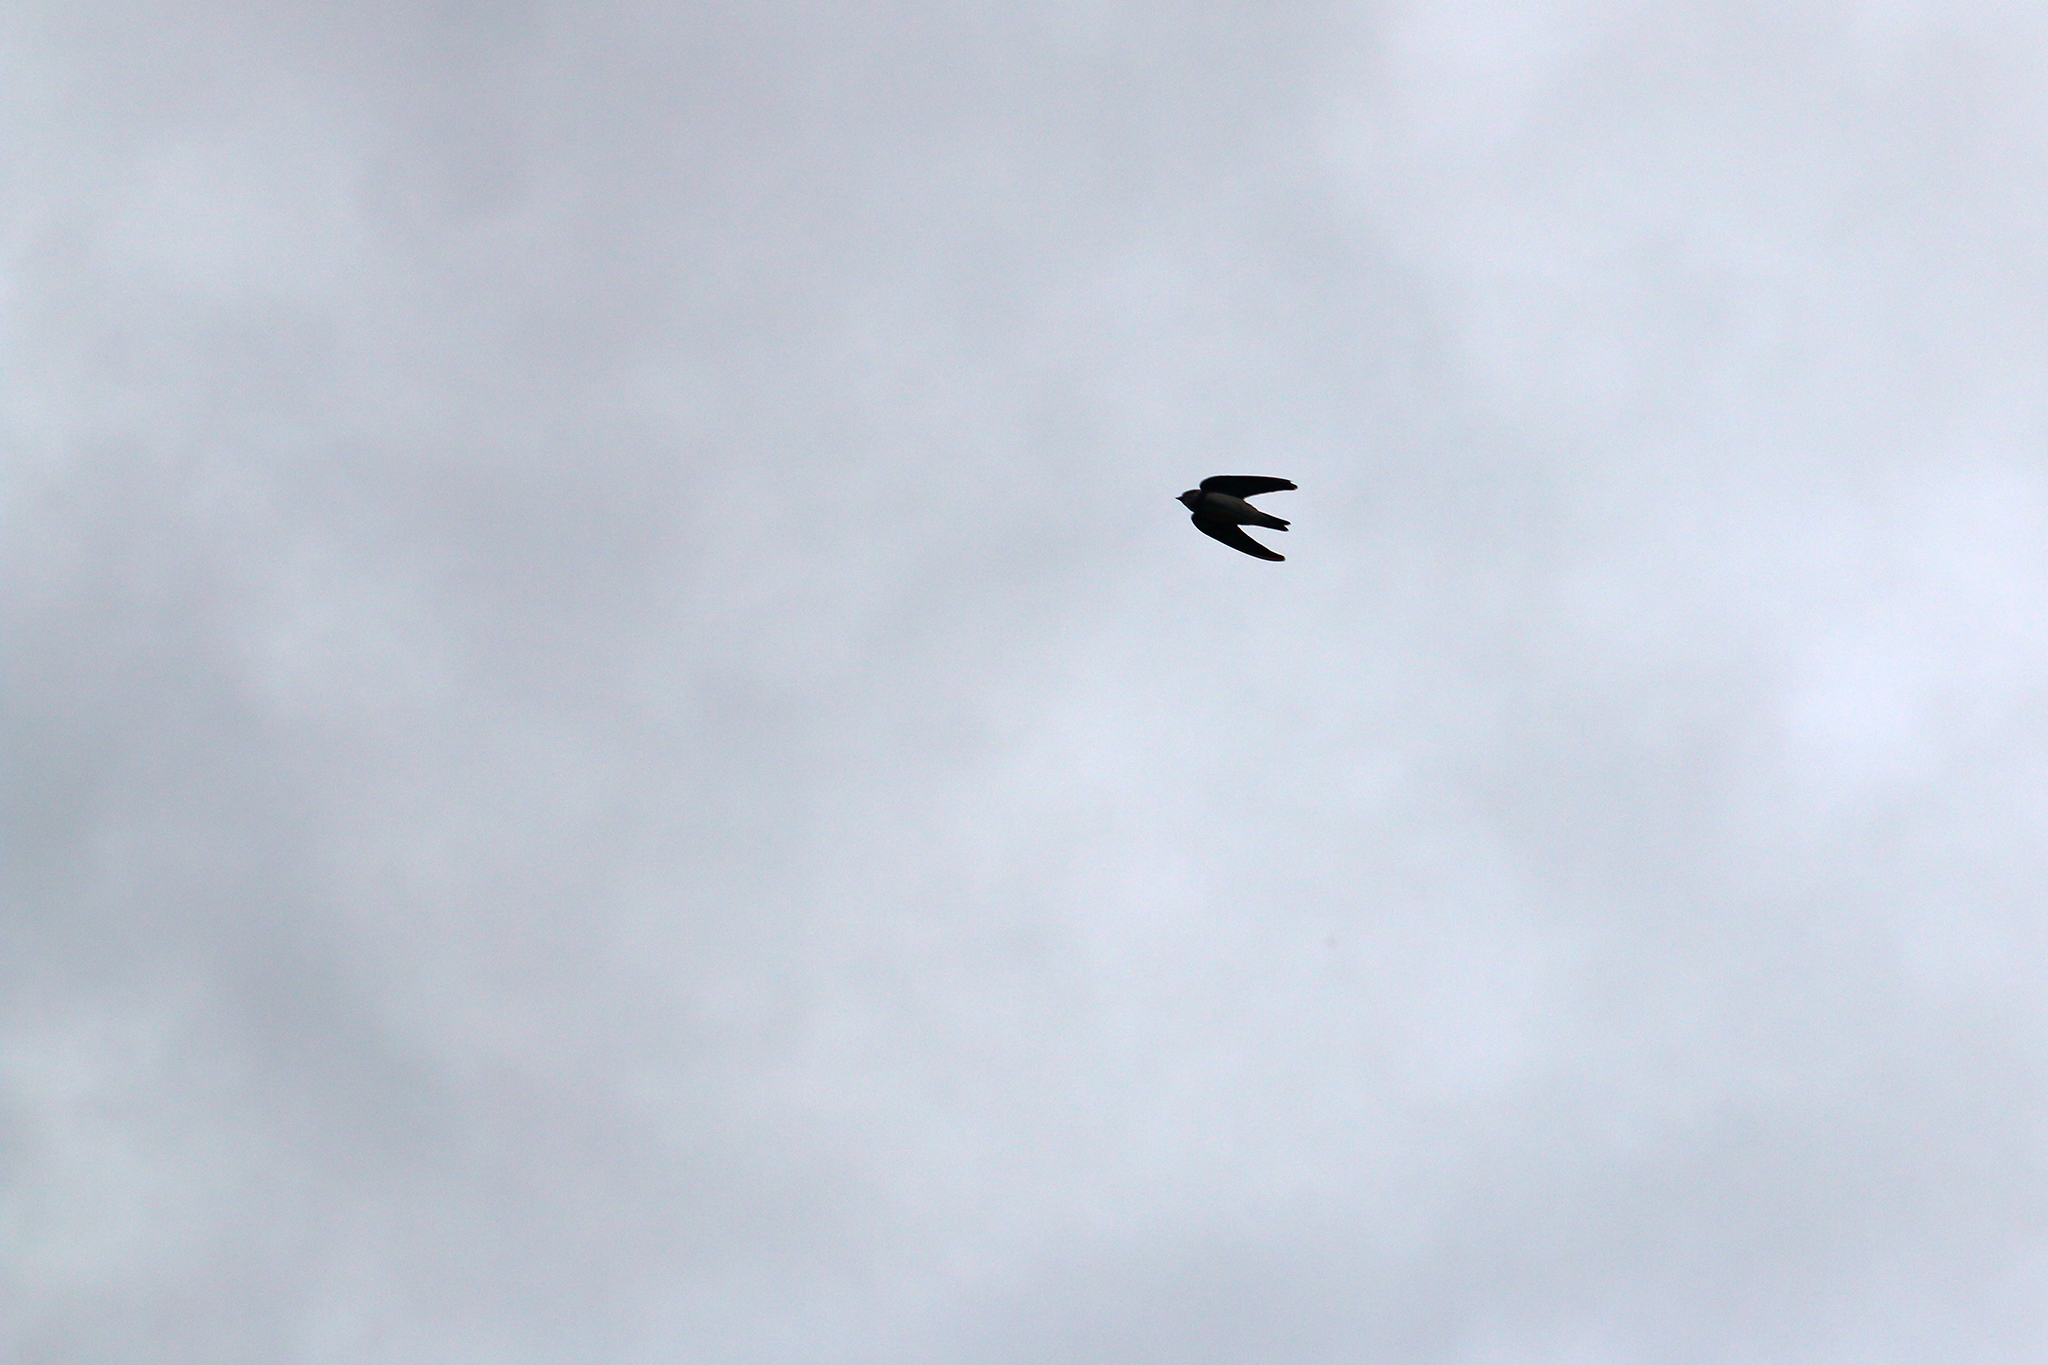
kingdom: Animalia
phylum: Chordata
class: Aves
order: Apodiformes
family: Apodidae
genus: Apus
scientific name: Apus apus
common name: Common swift
